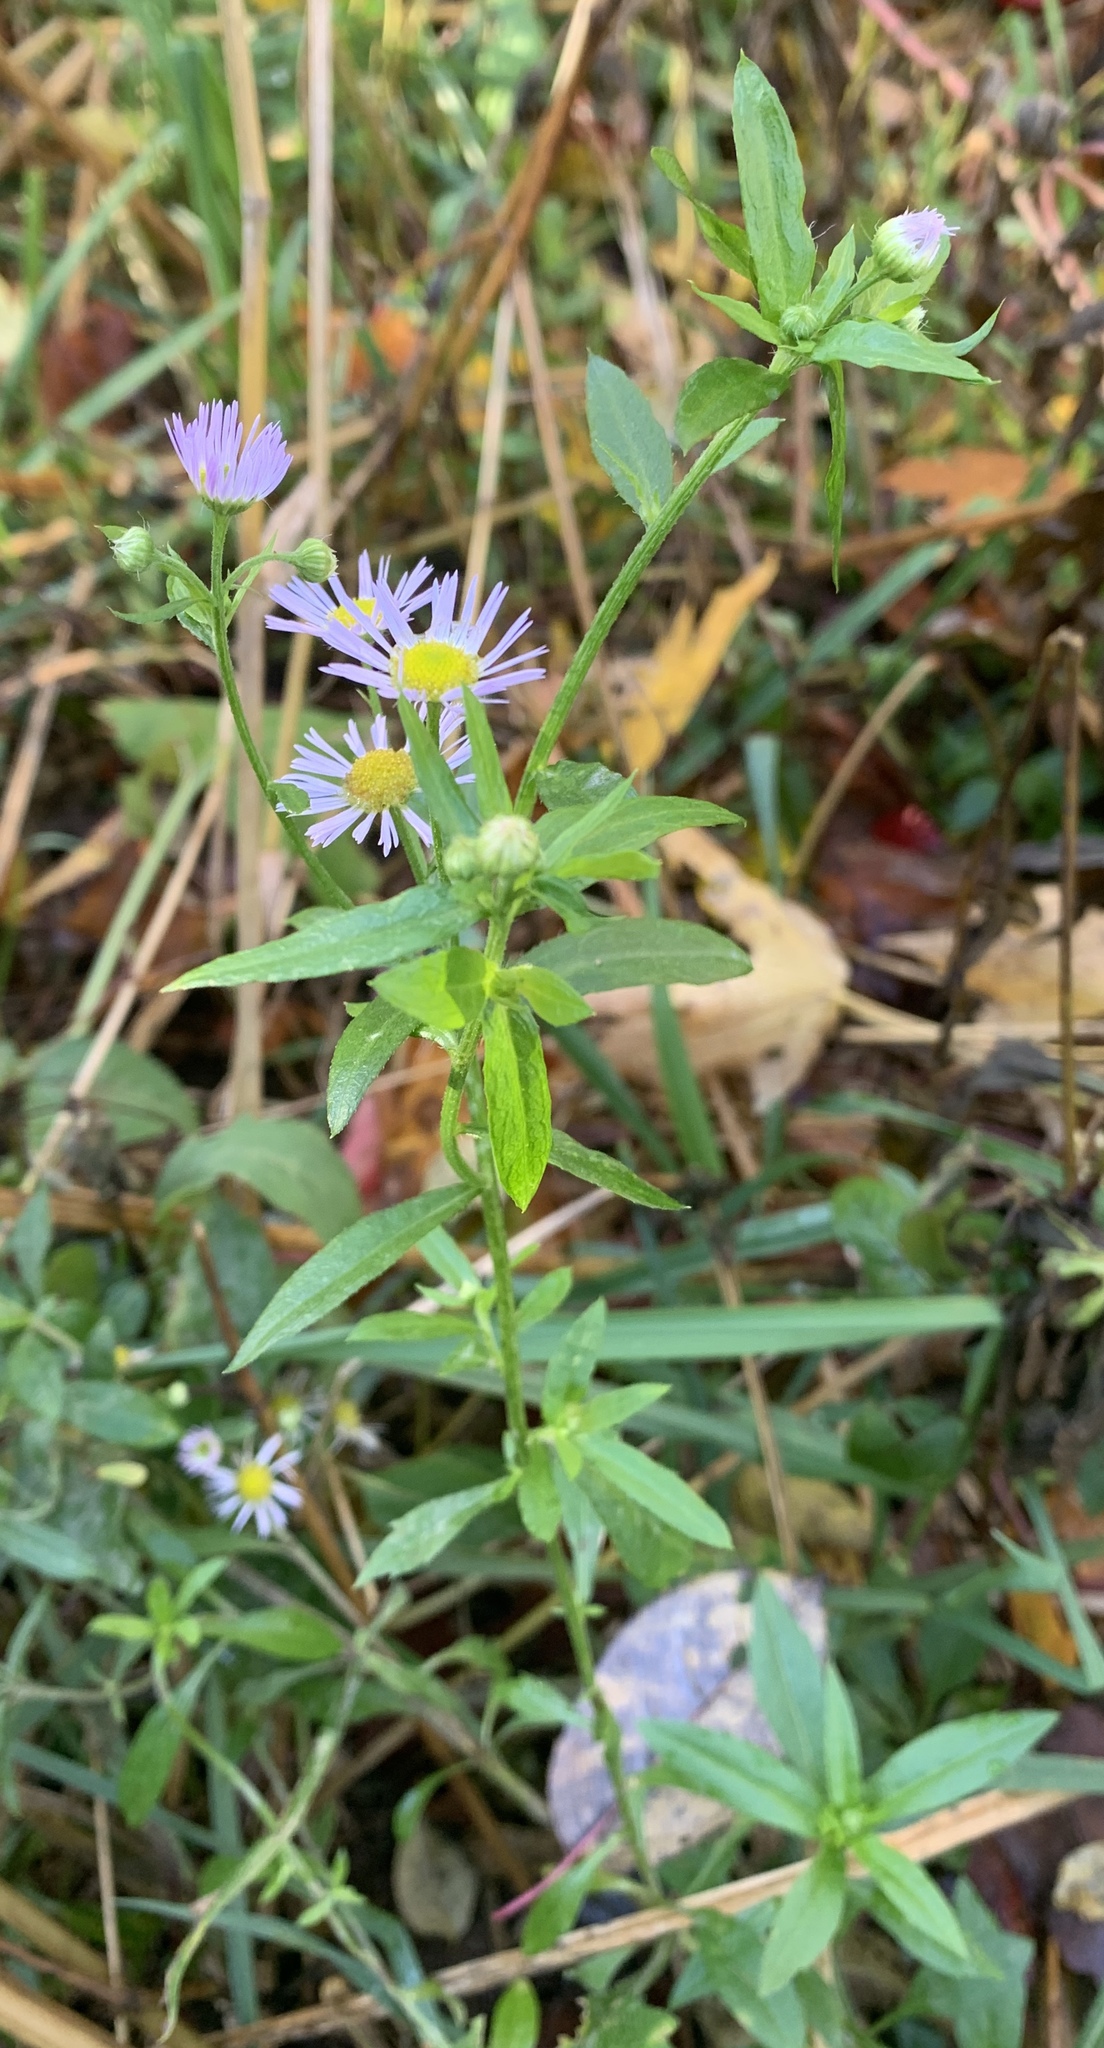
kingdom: Plantae
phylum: Tracheophyta
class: Magnoliopsida
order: Asterales
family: Asteraceae
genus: Symphyotrichum
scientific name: Symphyotrichum novi-belgii
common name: Michaelmas daisy
